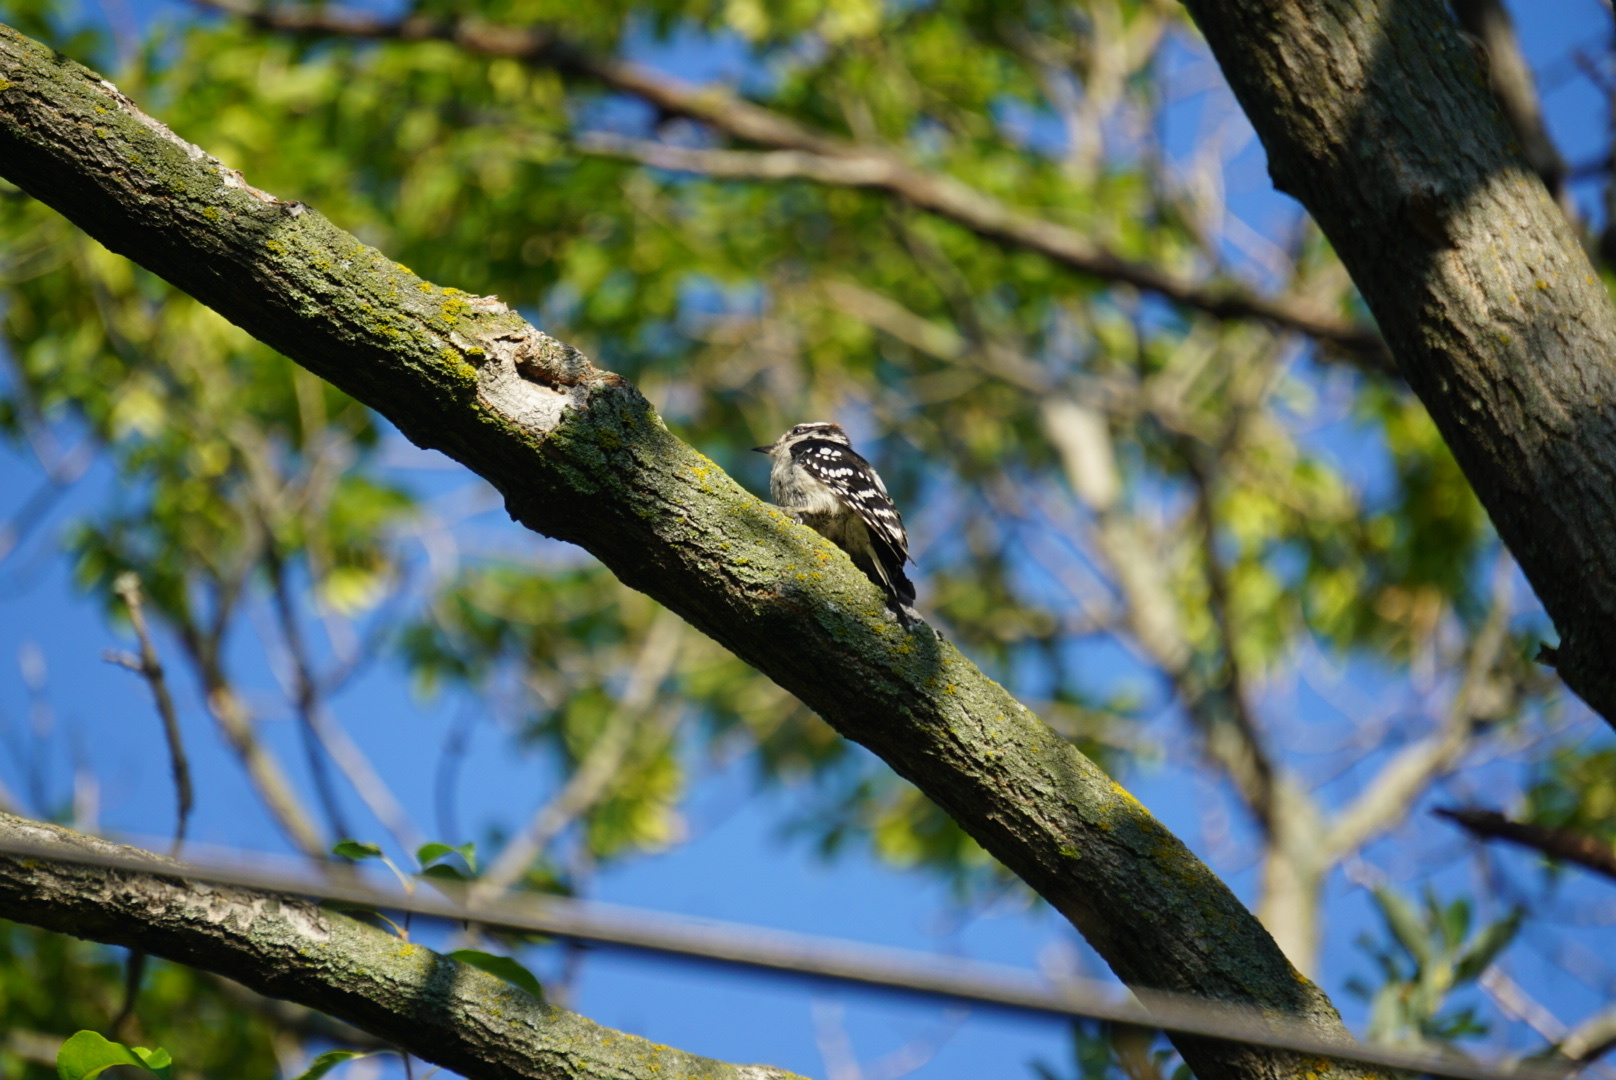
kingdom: Animalia
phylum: Chordata
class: Aves
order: Piciformes
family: Picidae
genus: Dryobates
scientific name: Dryobates pubescens
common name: Downy woodpecker
